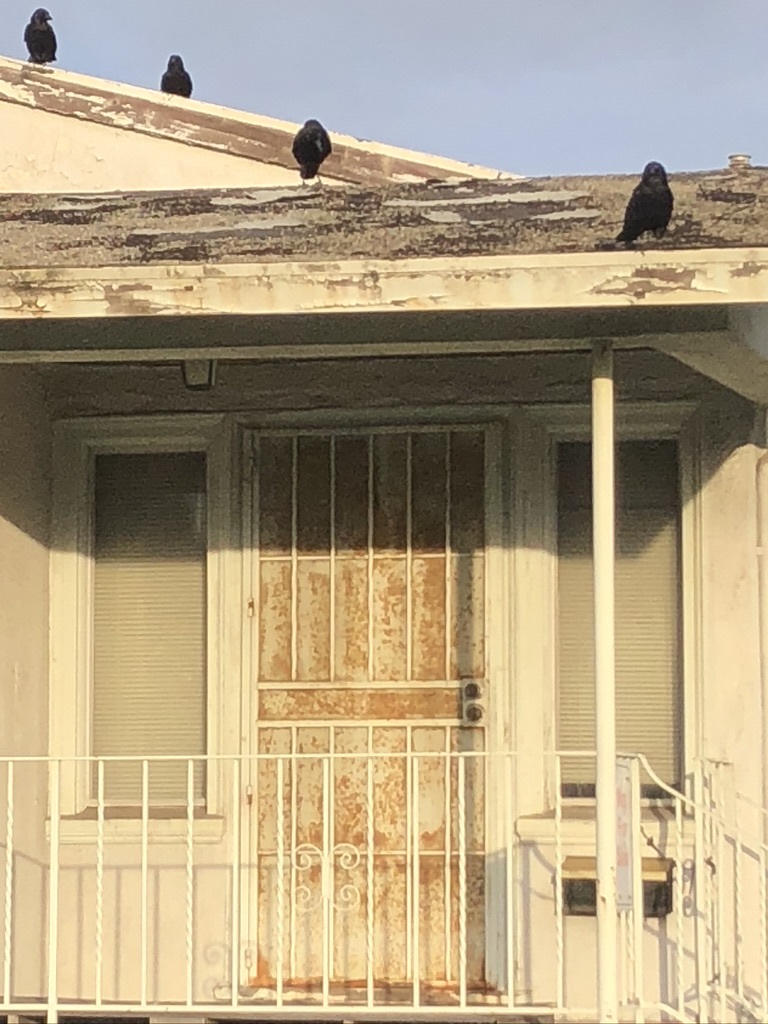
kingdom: Animalia
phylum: Chordata
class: Aves
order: Passeriformes
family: Corvidae
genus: Corvus
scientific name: Corvus brachyrhynchos
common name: American crow
